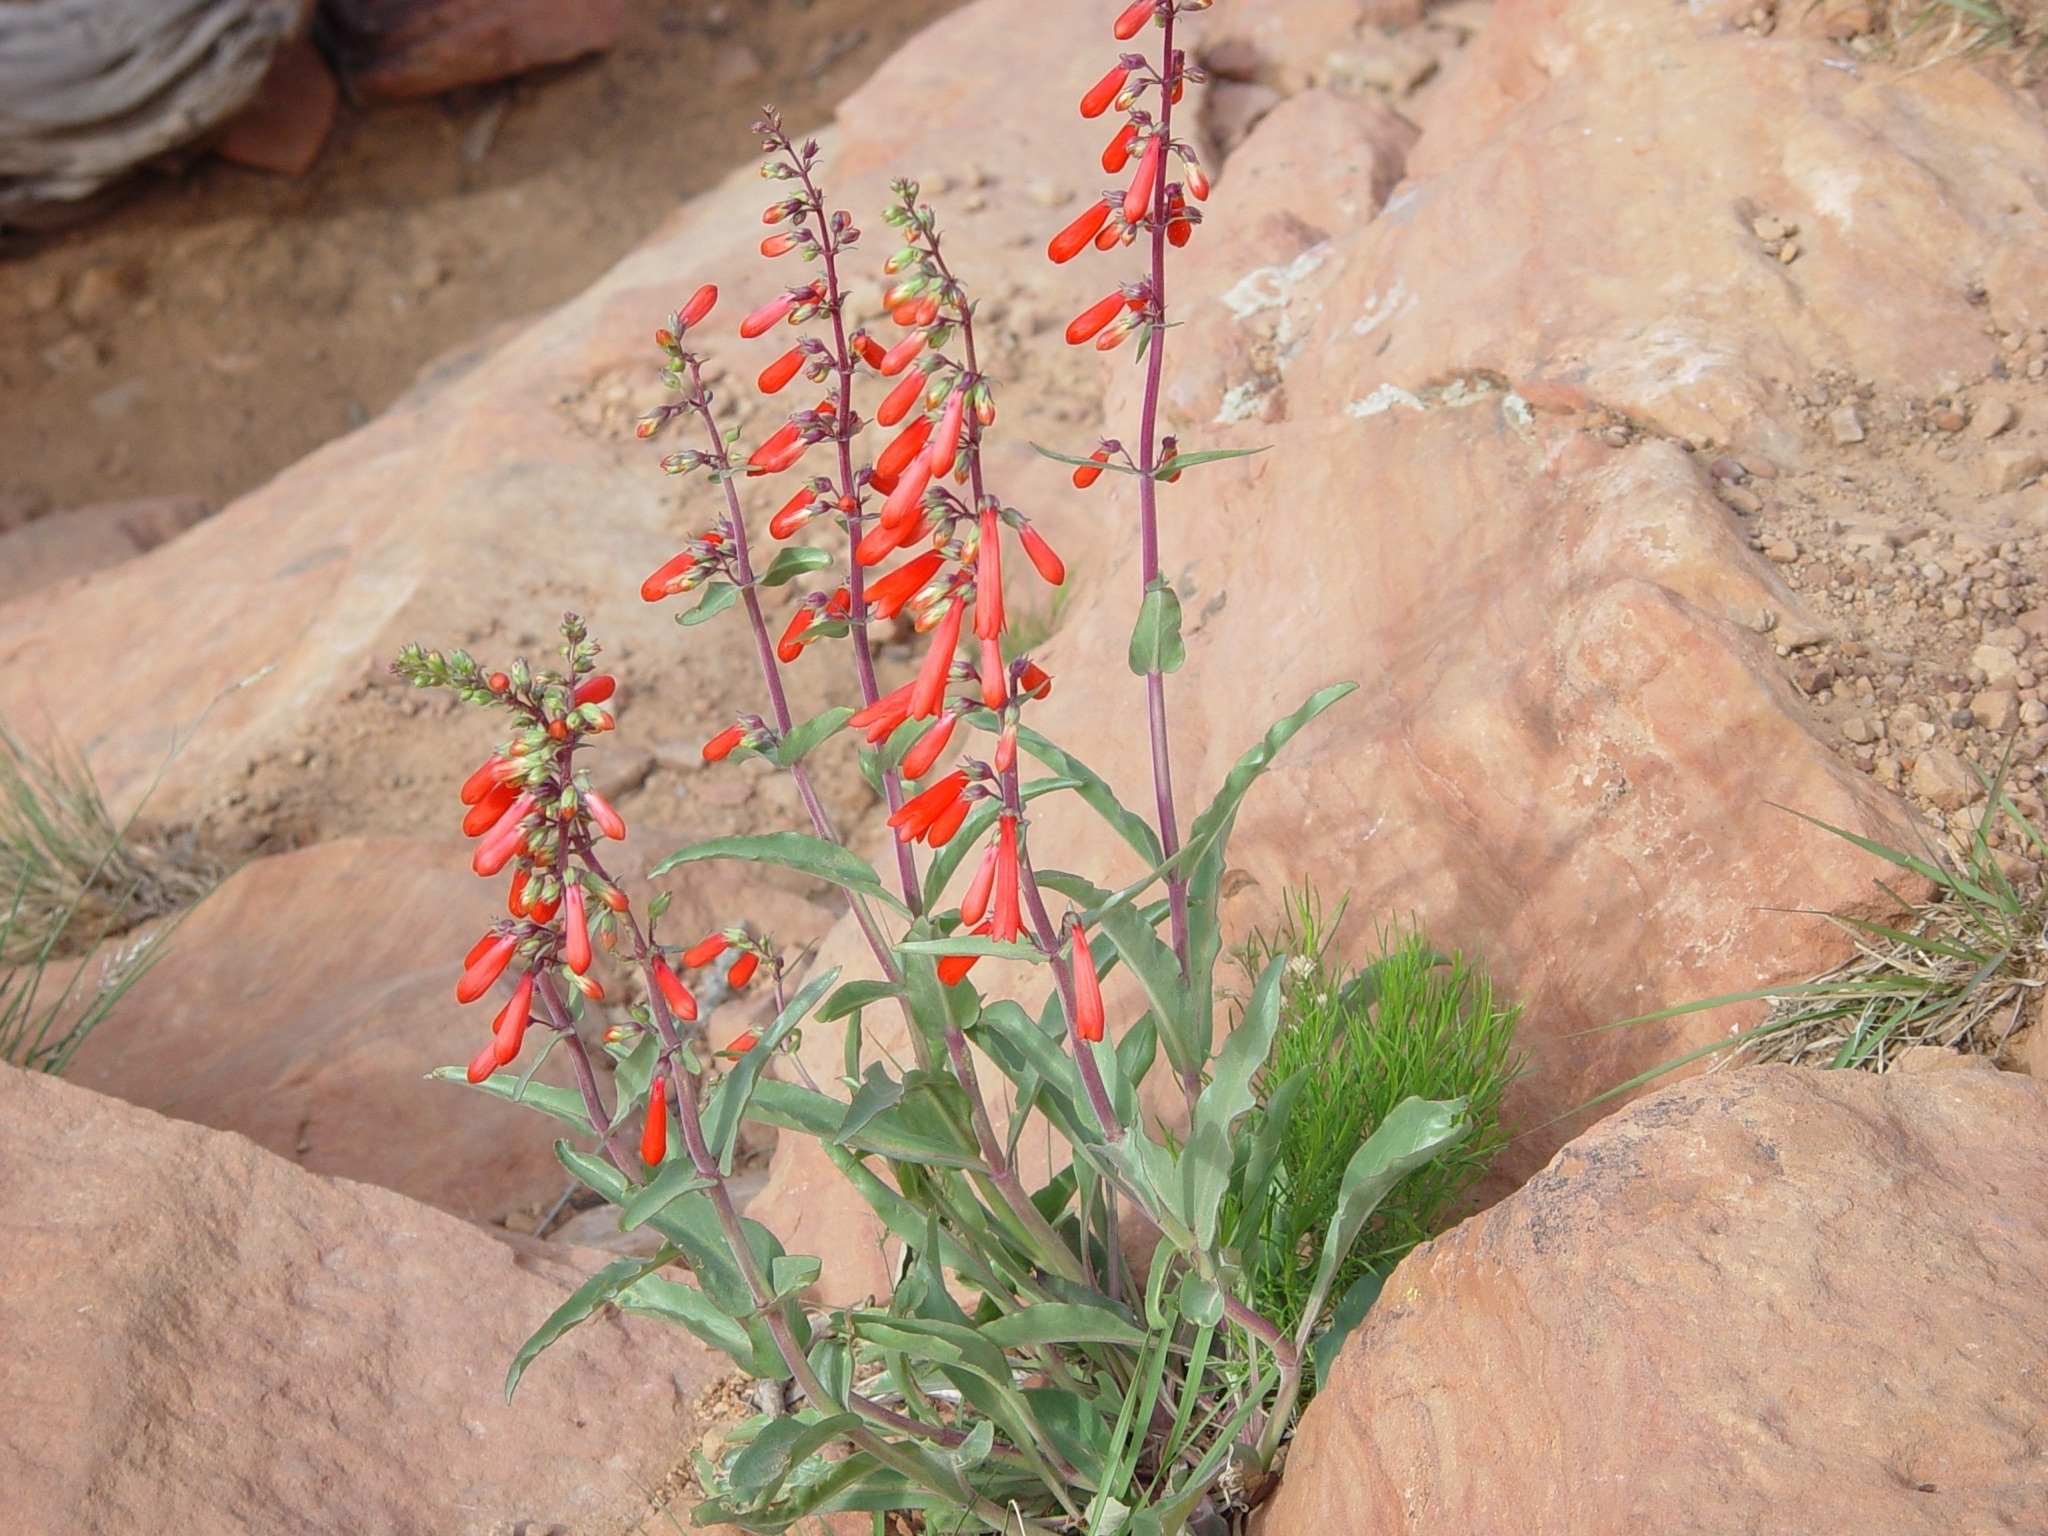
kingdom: Plantae
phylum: Tracheophyta
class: Magnoliopsida
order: Lamiales
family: Plantaginaceae
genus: Penstemon
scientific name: Penstemon eatonii
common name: Eaton's penstemon
